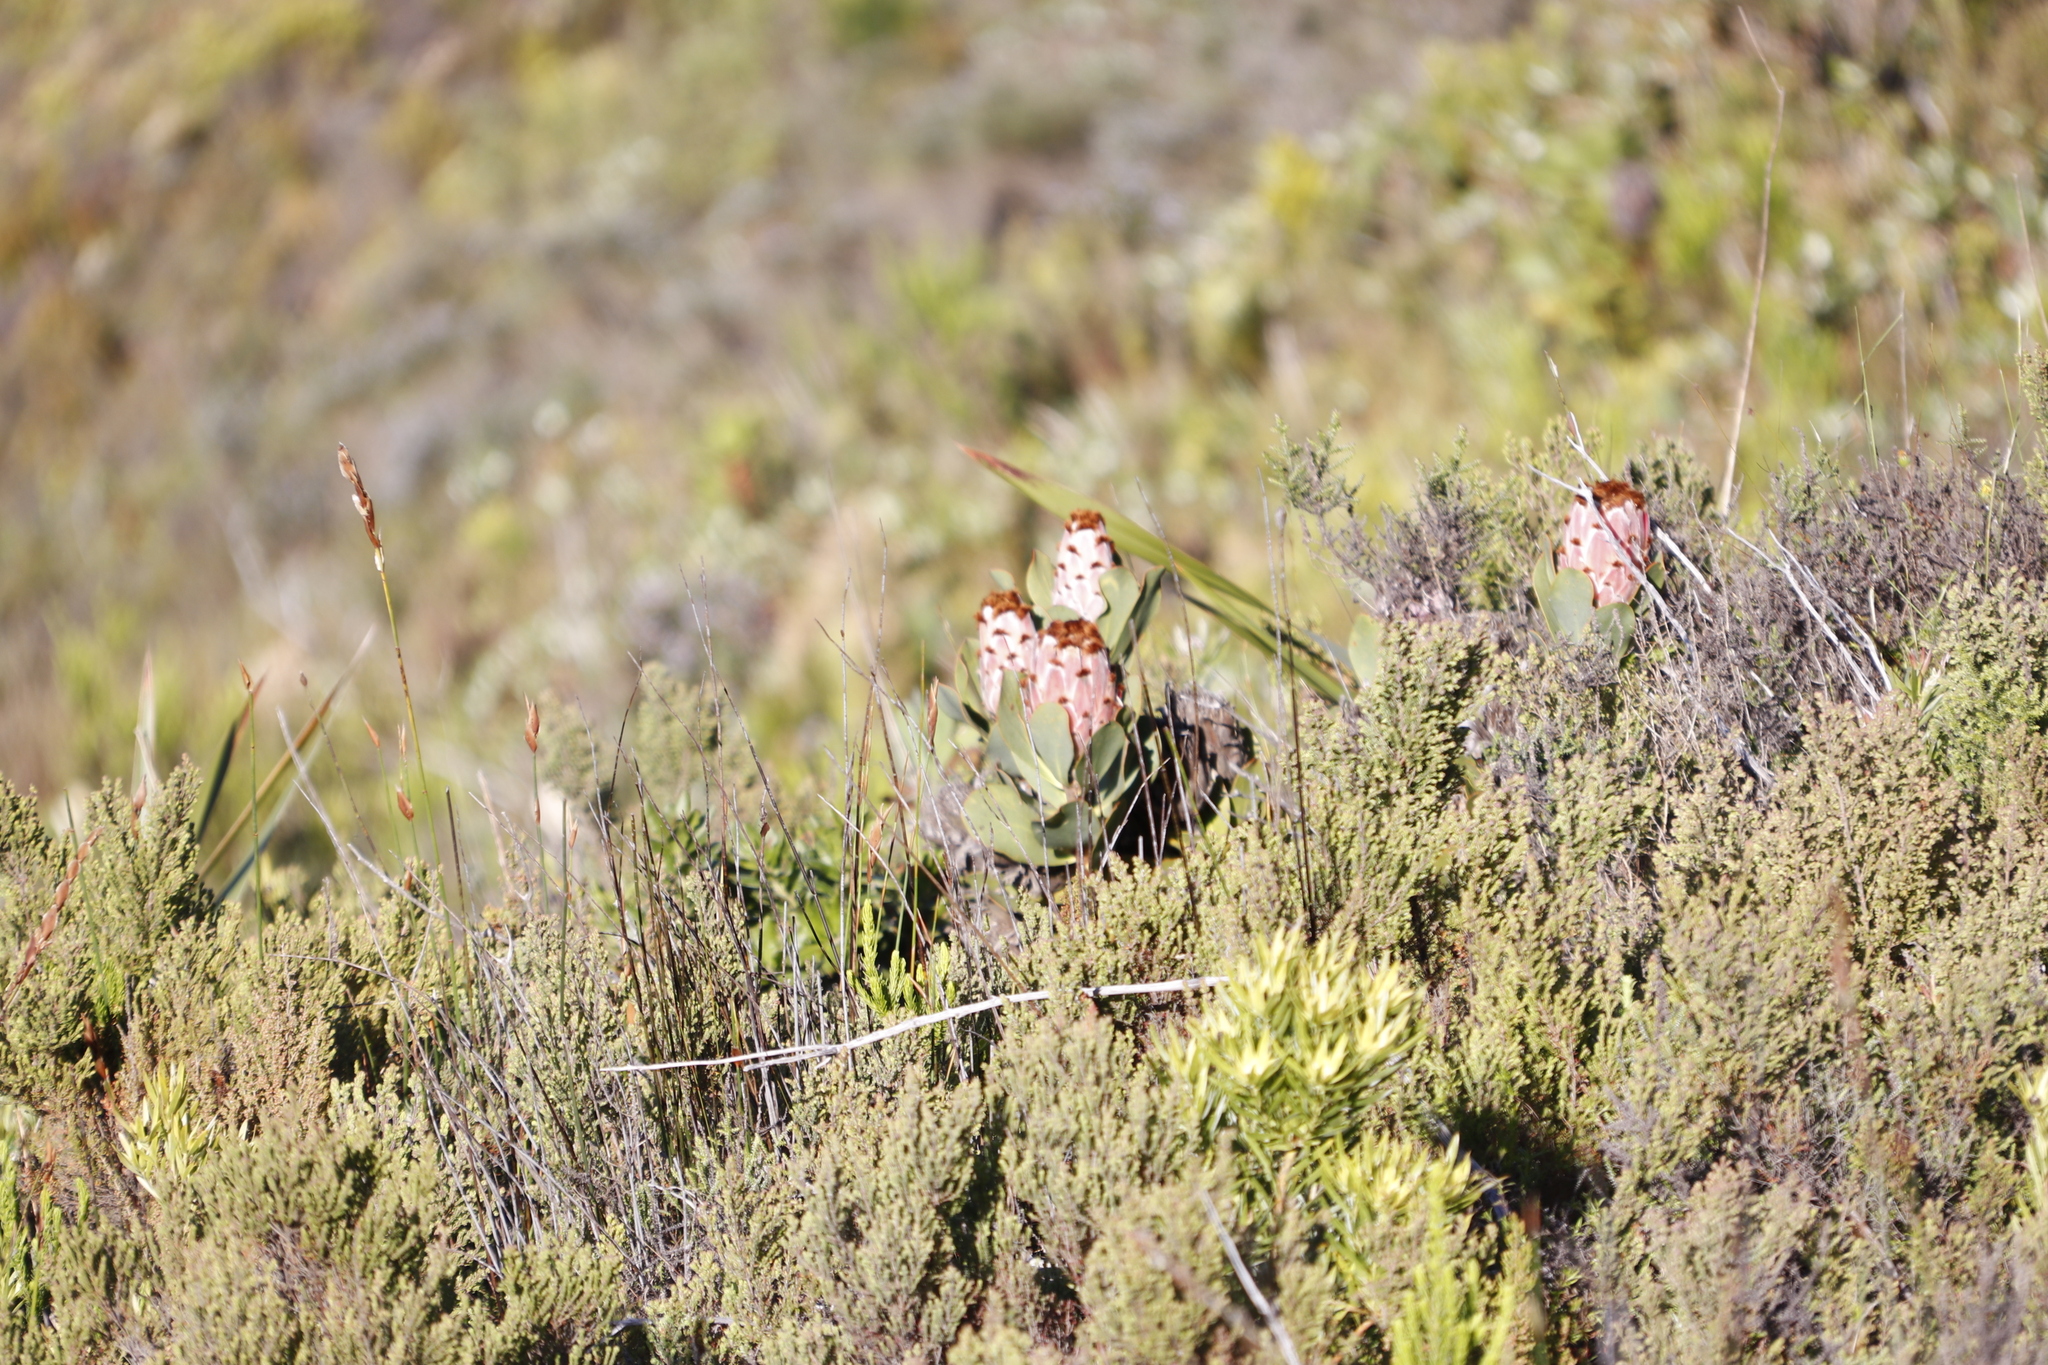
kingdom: Plantae
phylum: Tracheophyta
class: Magnoliopsida
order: Proteales
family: Proteaceae
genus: Protea
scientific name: Protea speciosa
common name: Brown-beard sugarbush
